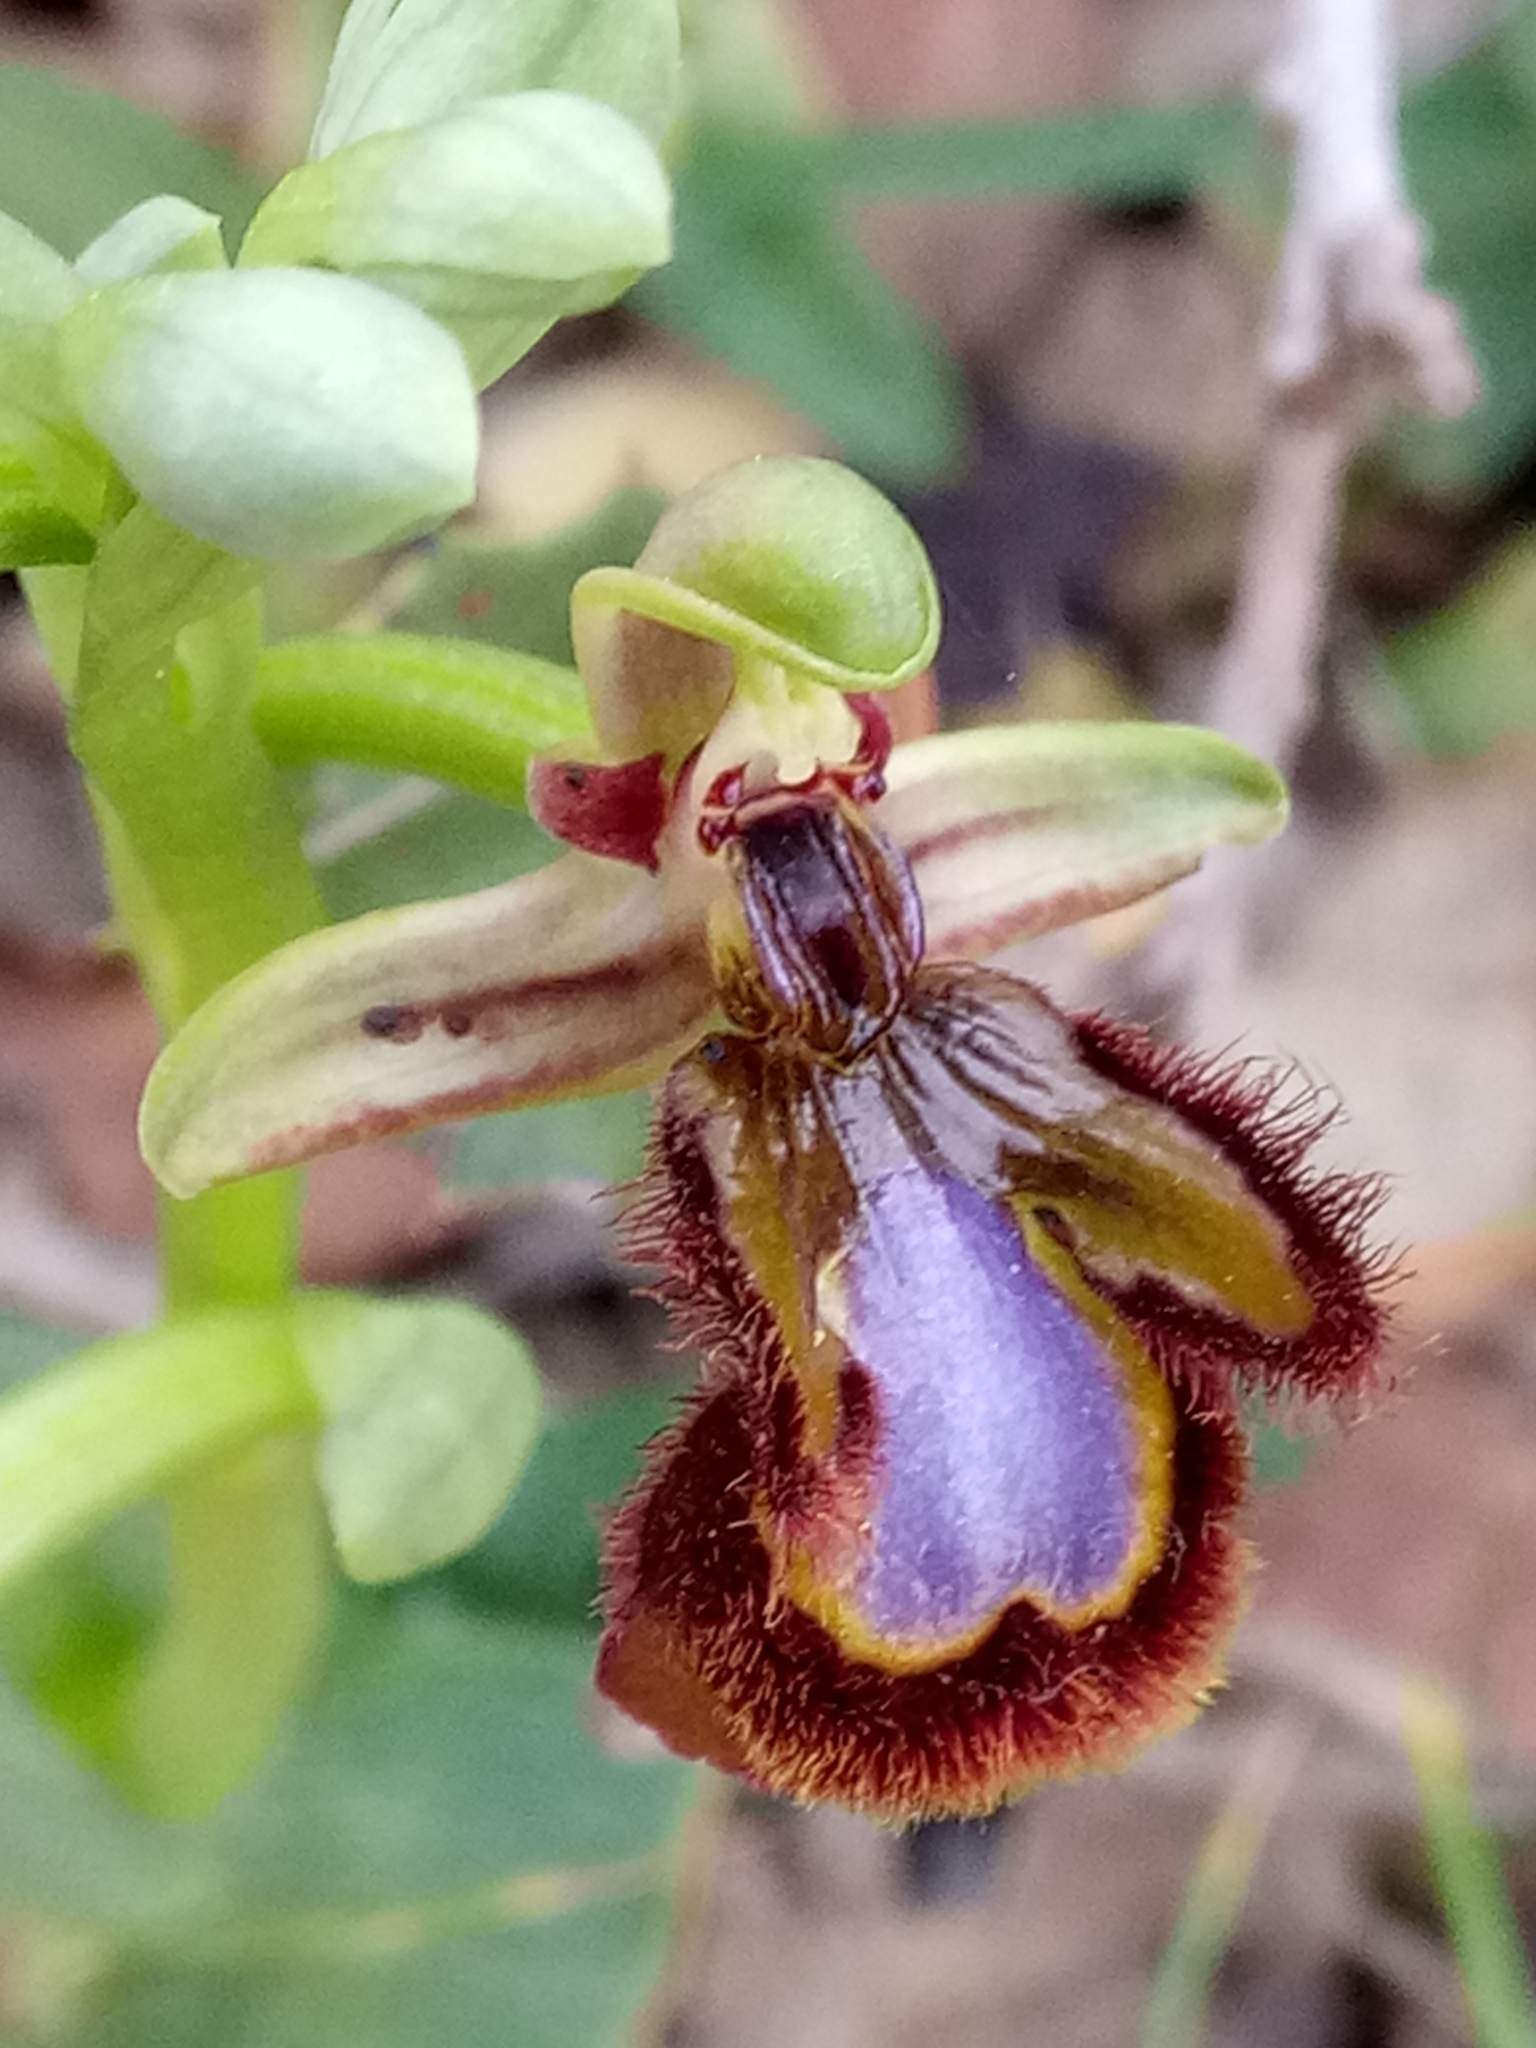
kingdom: Plantae
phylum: Tracheophyta
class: Liliopsida
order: Asparagales
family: Orchidaceae
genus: Ophrys
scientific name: Ophrys speculum
